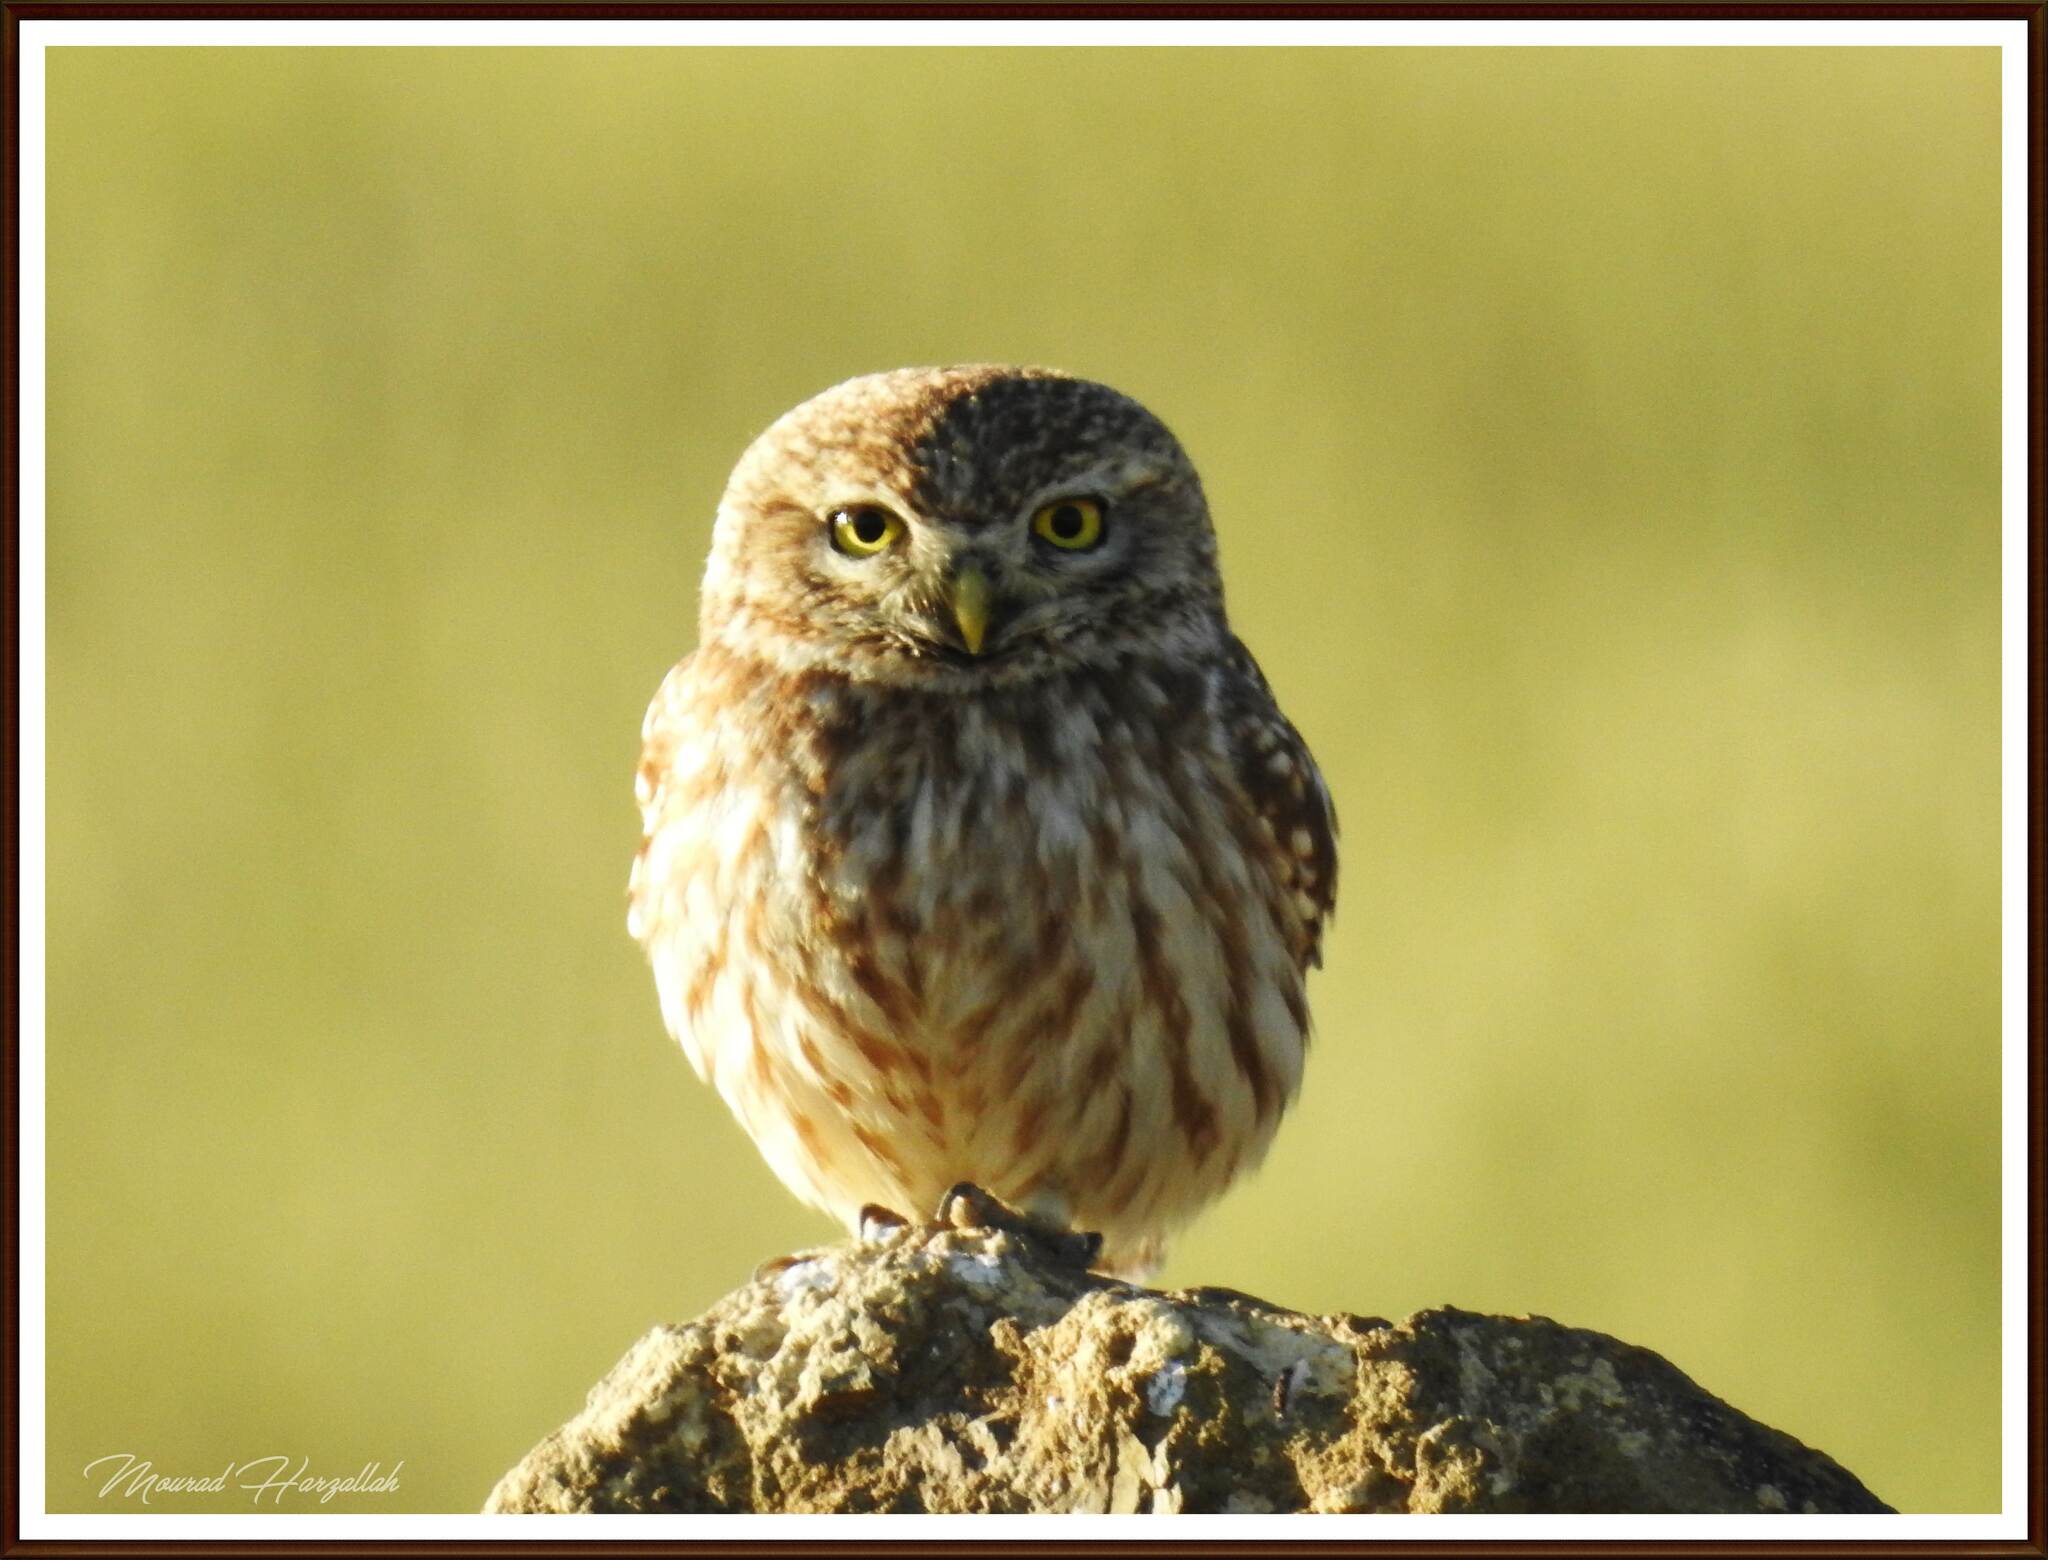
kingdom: Animalia
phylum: Chordata
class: Aves
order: Strigiformes
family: Strigidae
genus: Athene
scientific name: Athene noctua
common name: Little owl
